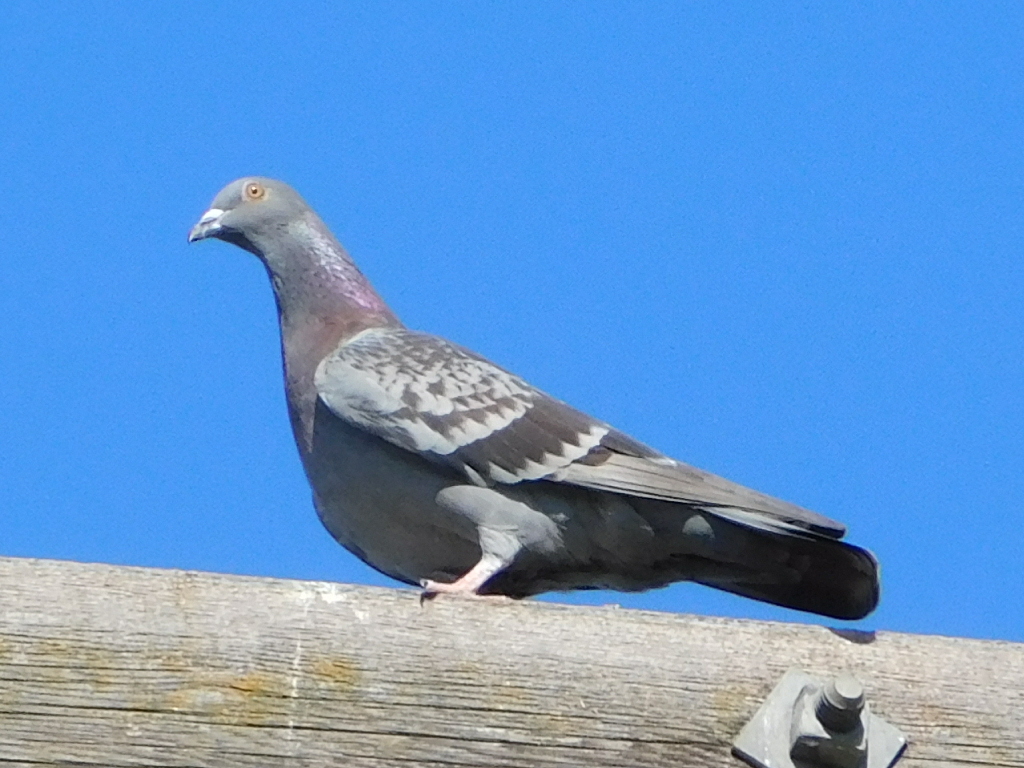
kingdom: Animalia
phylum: Chordata
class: Aves
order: Columbiformes
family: Columbidae
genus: Columba
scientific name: Columba livia
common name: Rock pigeon
